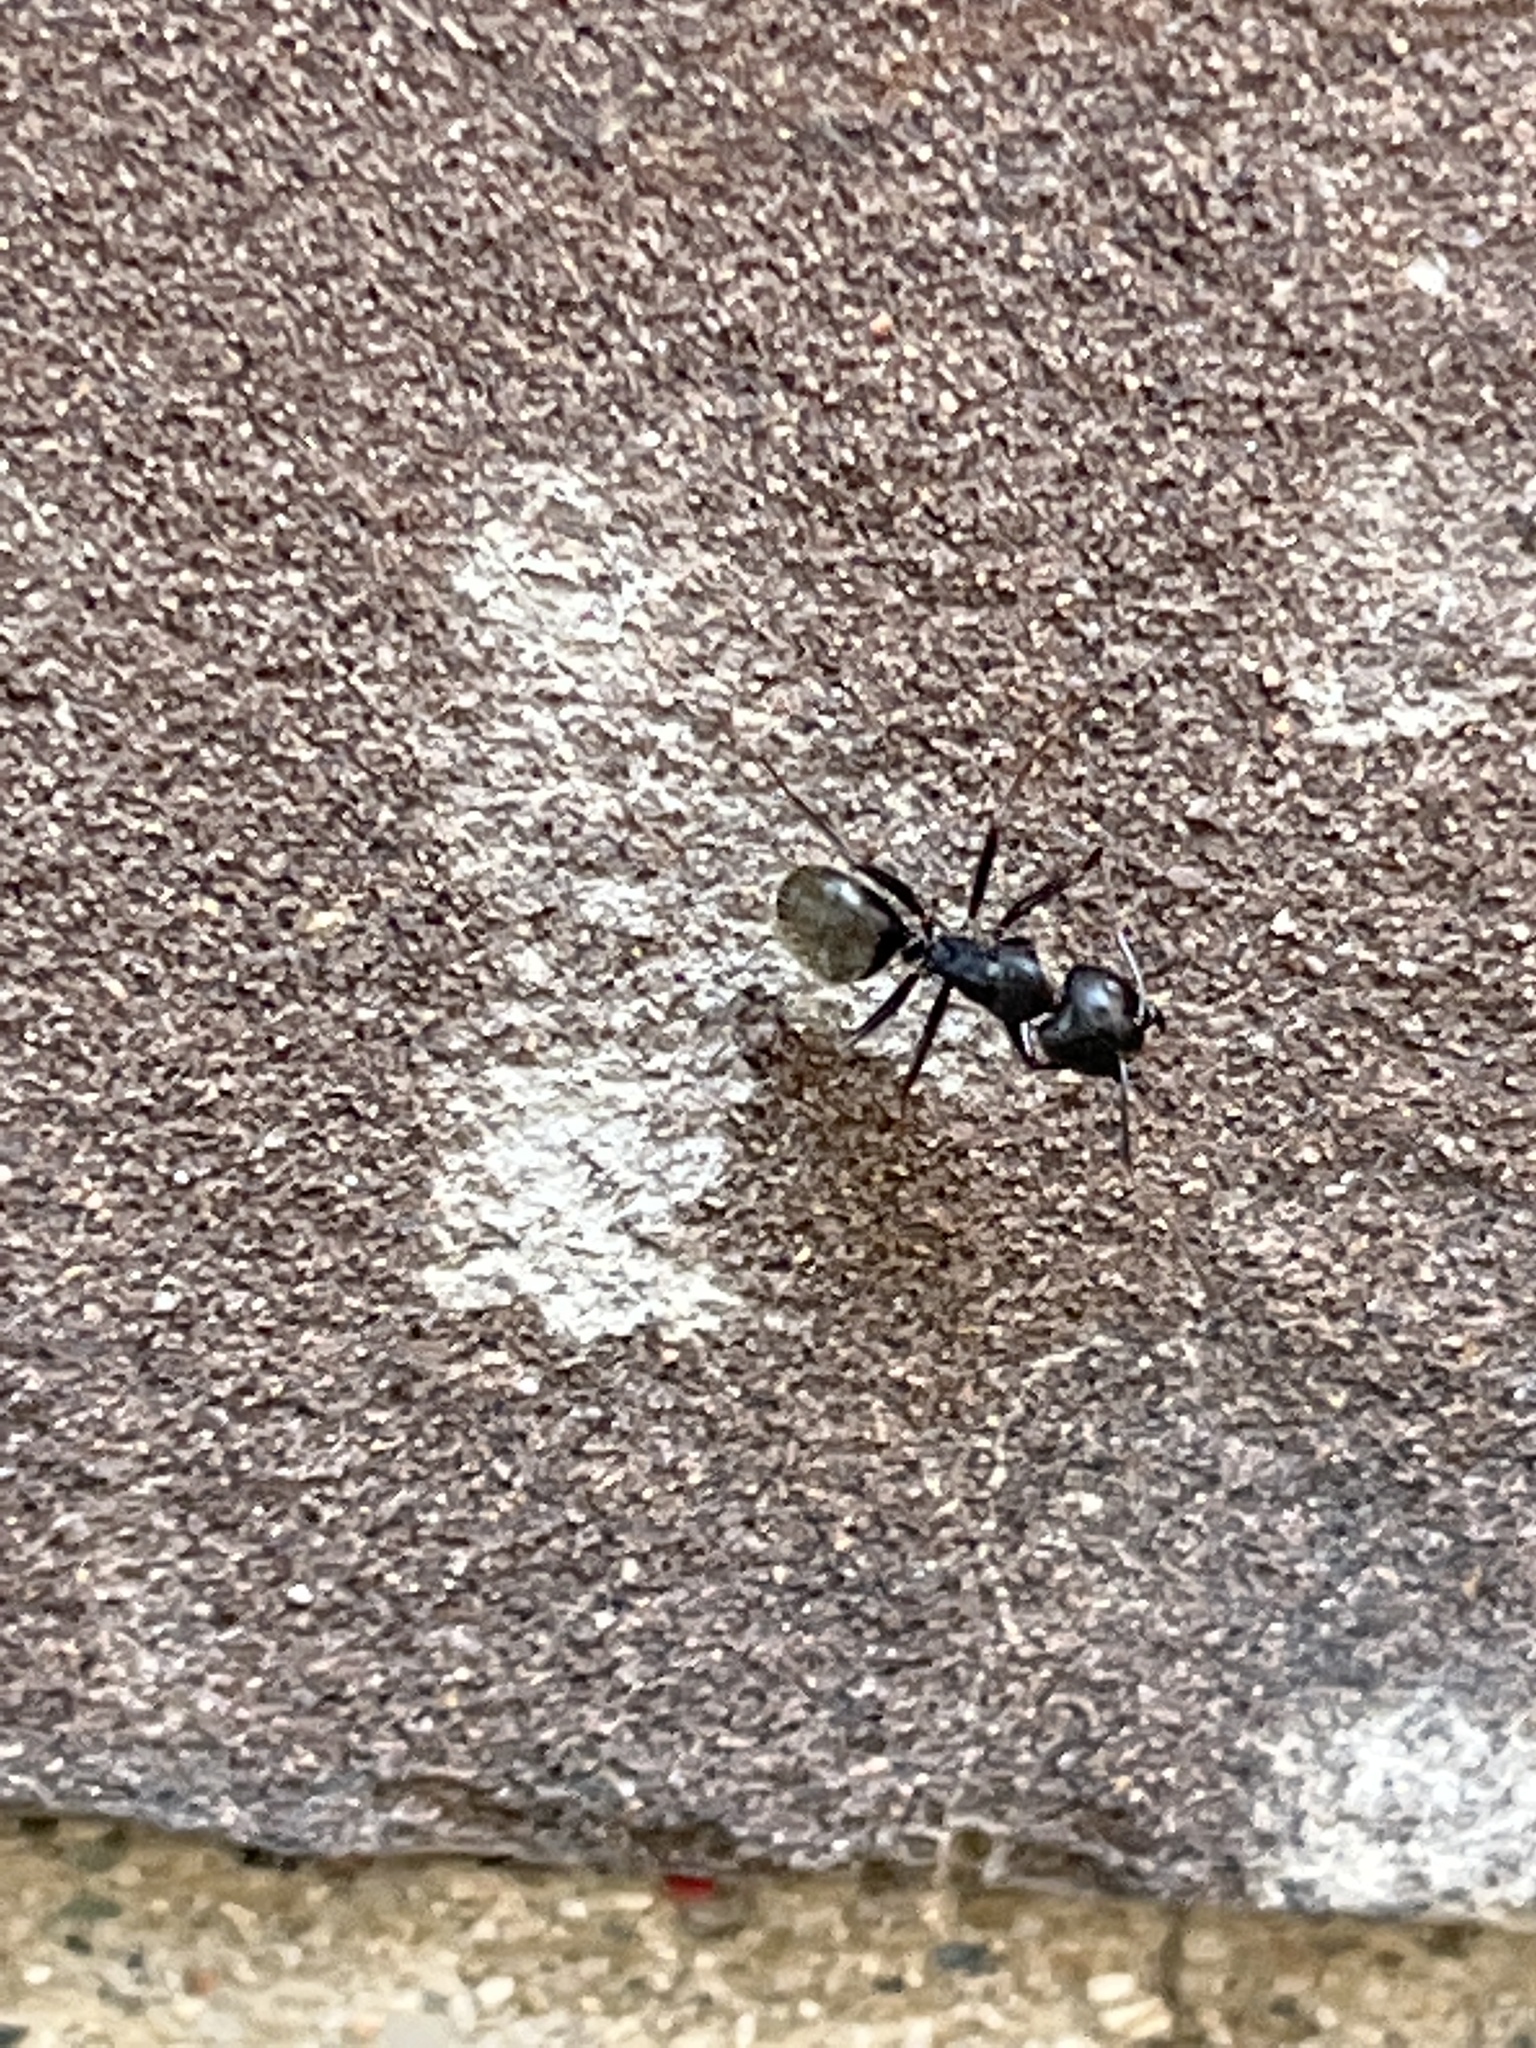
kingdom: Animalia
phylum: Arthropoda
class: Insecta
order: Hymenoptera
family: Formicidae
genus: Camponotus
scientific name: Camponotus pennsylvanicus
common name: Black carpenter ant
